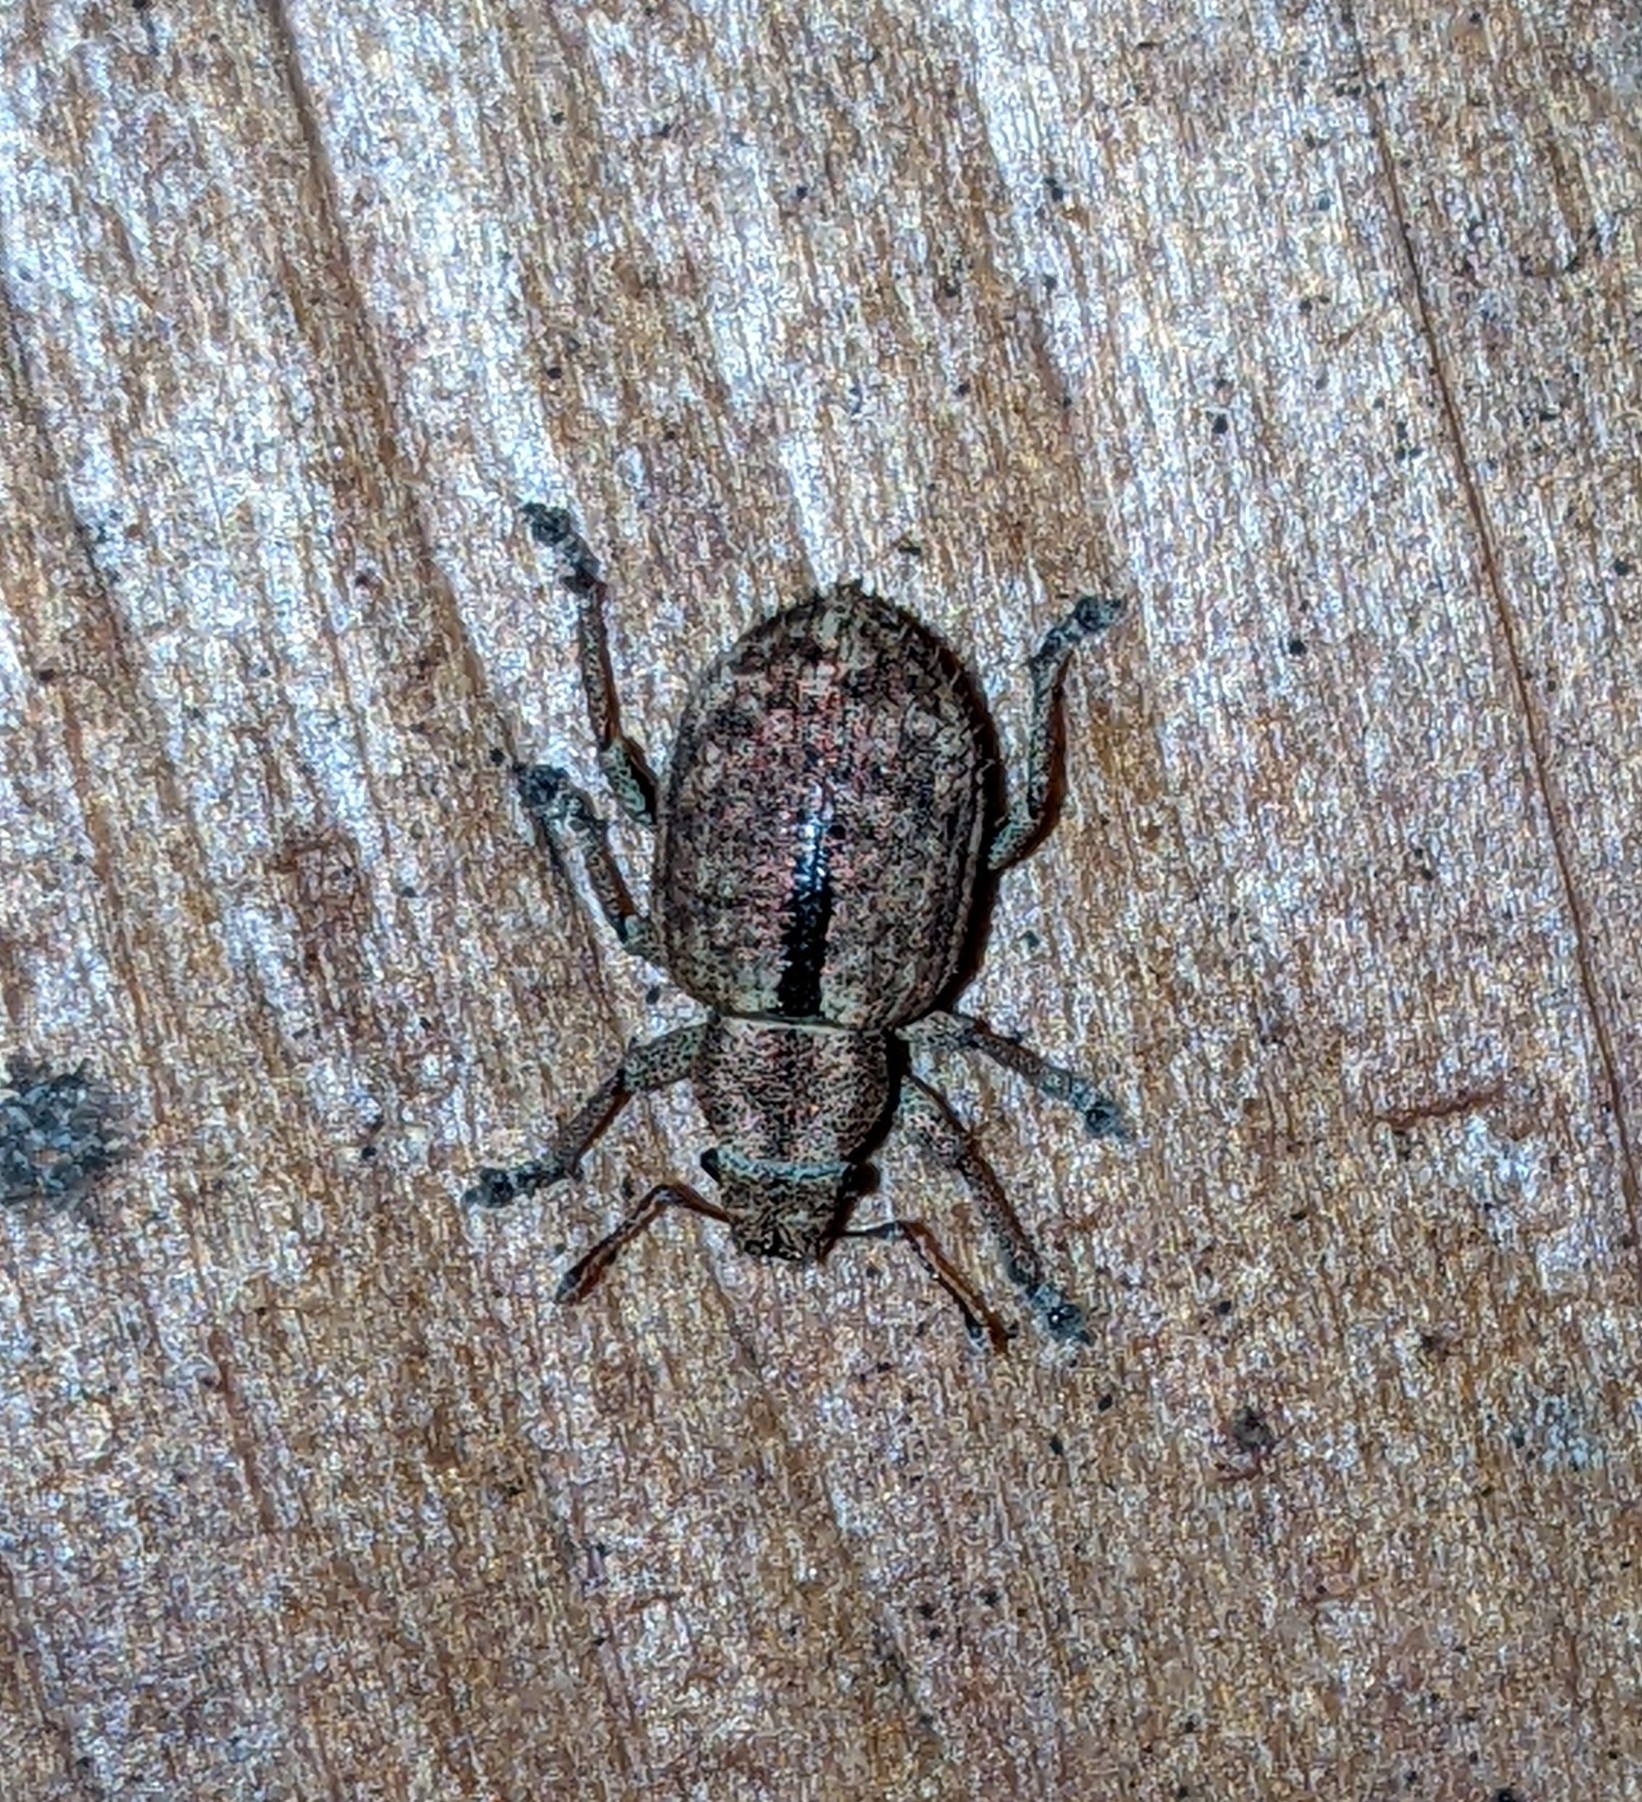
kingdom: Animalia
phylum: Arthropoda
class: Insecta
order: Coleoptera
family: Curculionidae
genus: Strophosoma
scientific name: Strophosoma melanogrammum
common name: Weevil
